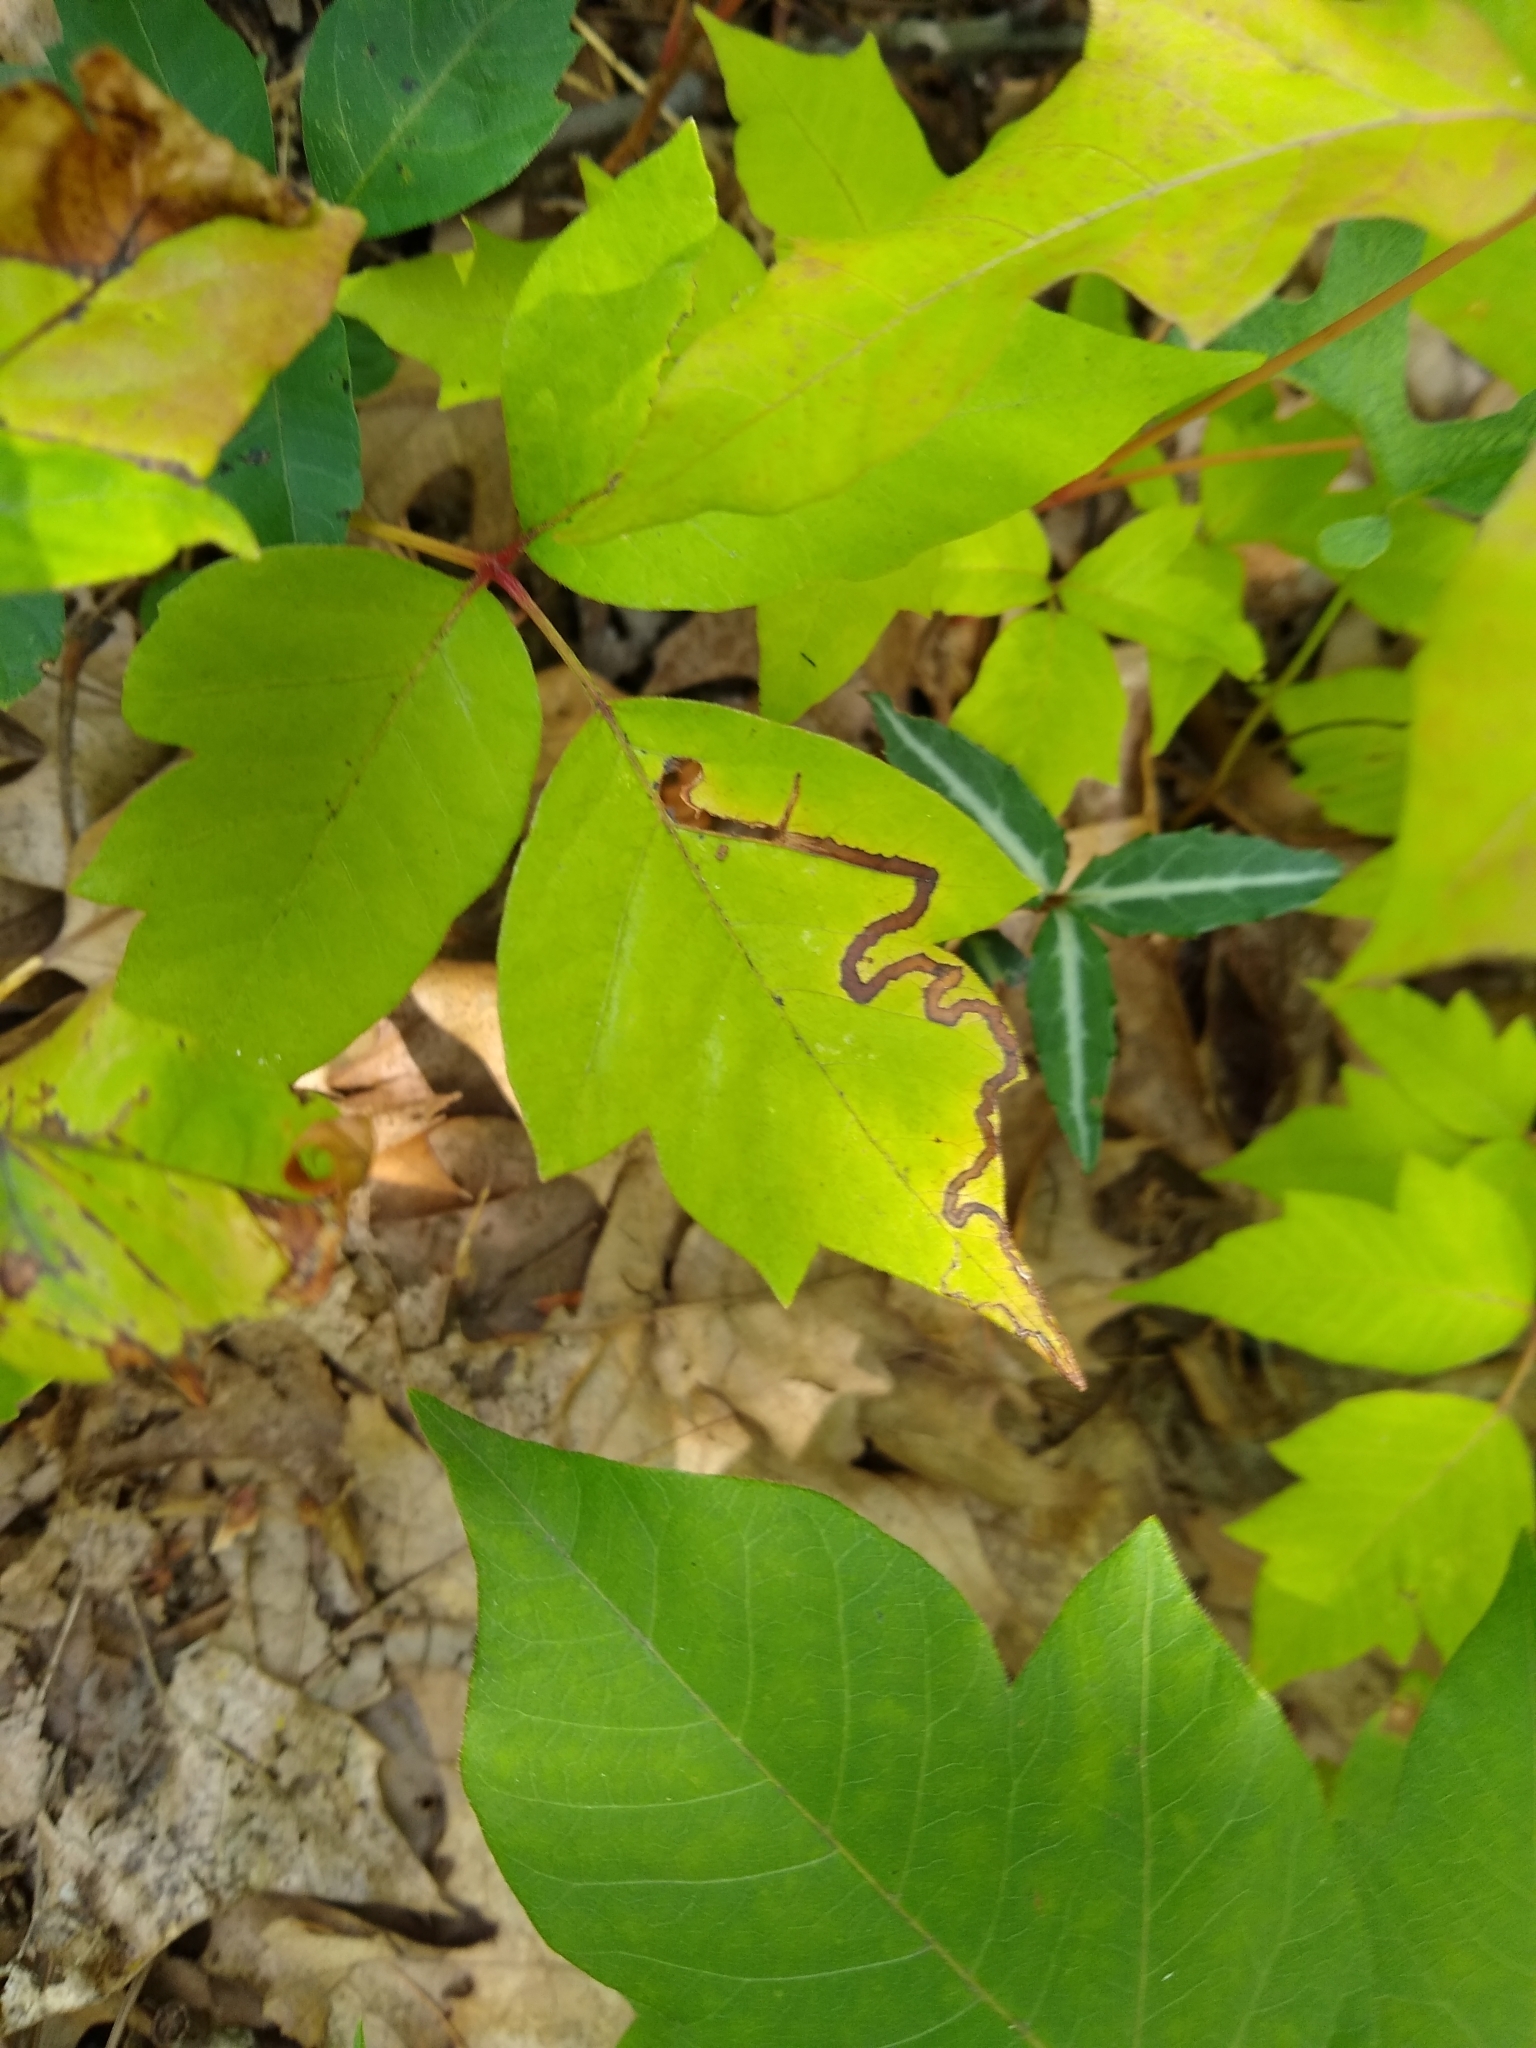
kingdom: Animalia
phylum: Arthropoda
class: Insecta
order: Lepidoptera
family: Nepticulidae
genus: Stigmella
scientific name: Stigmella rhoifoliella
